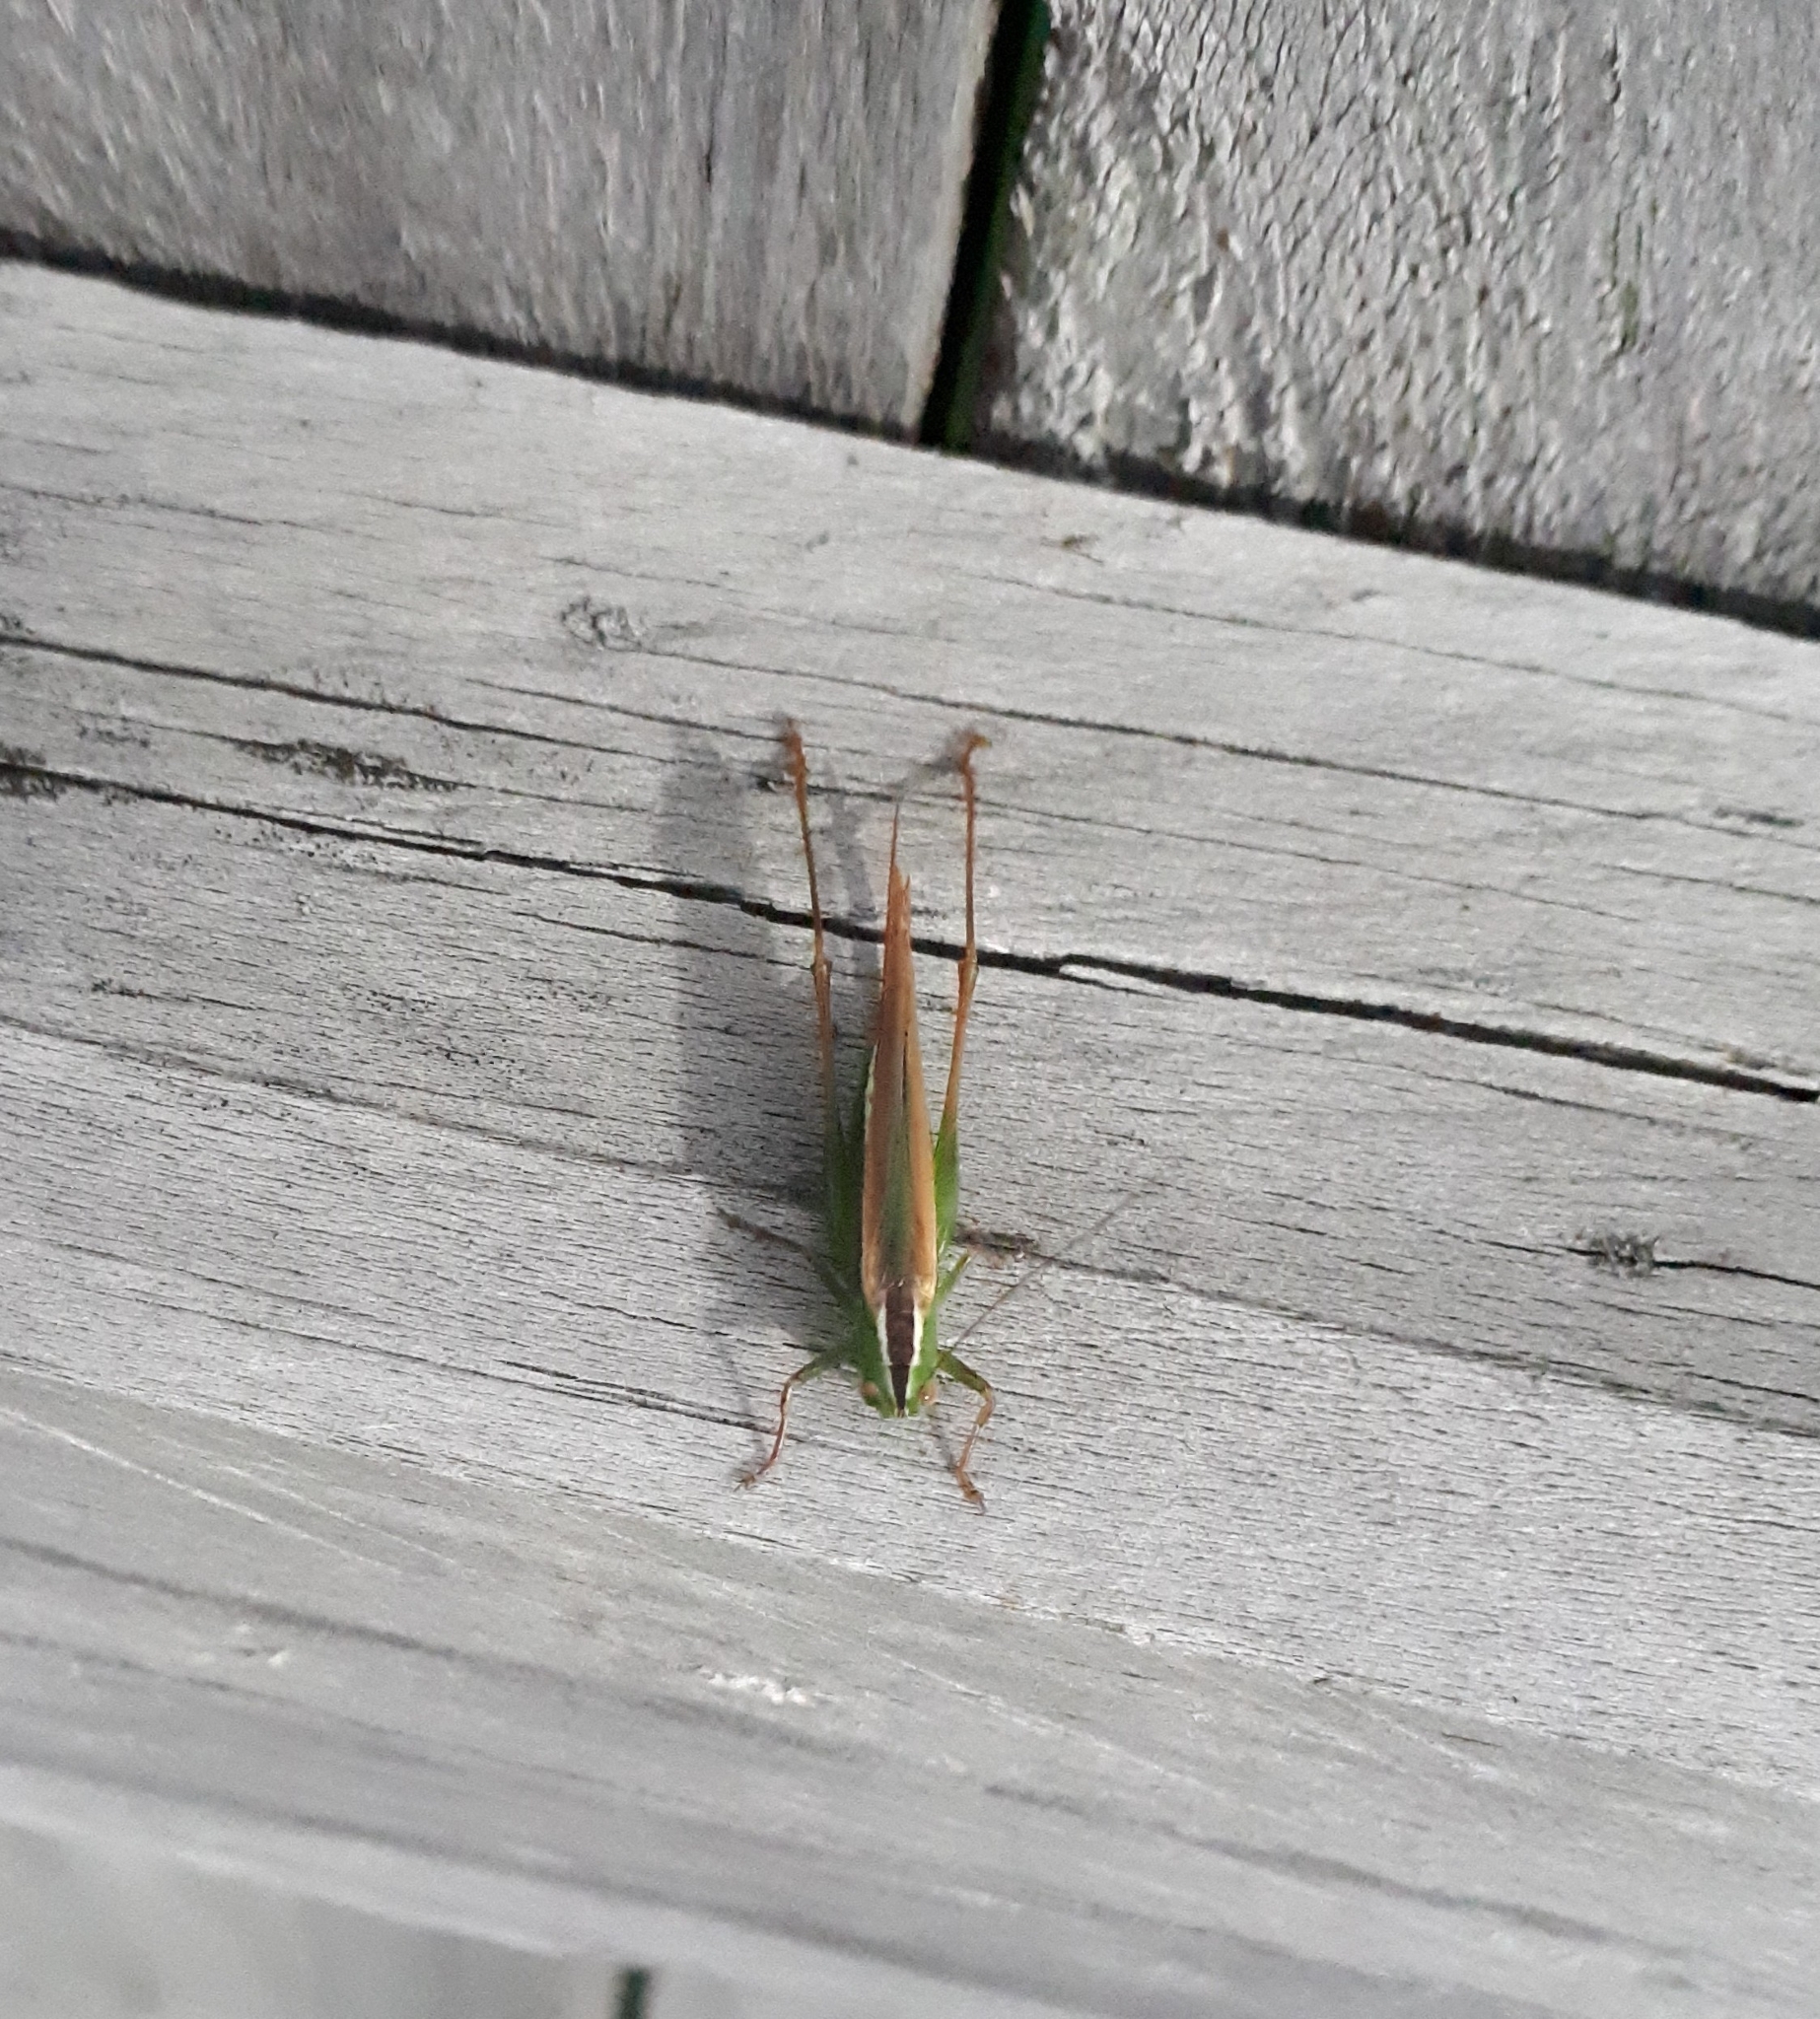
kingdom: Animalia
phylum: Arthropoda
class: Insecta
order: Orthoptera
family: Tettigoniidae
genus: Conocephalus
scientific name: Conocephalus bilineatus
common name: Small meadow katydid
